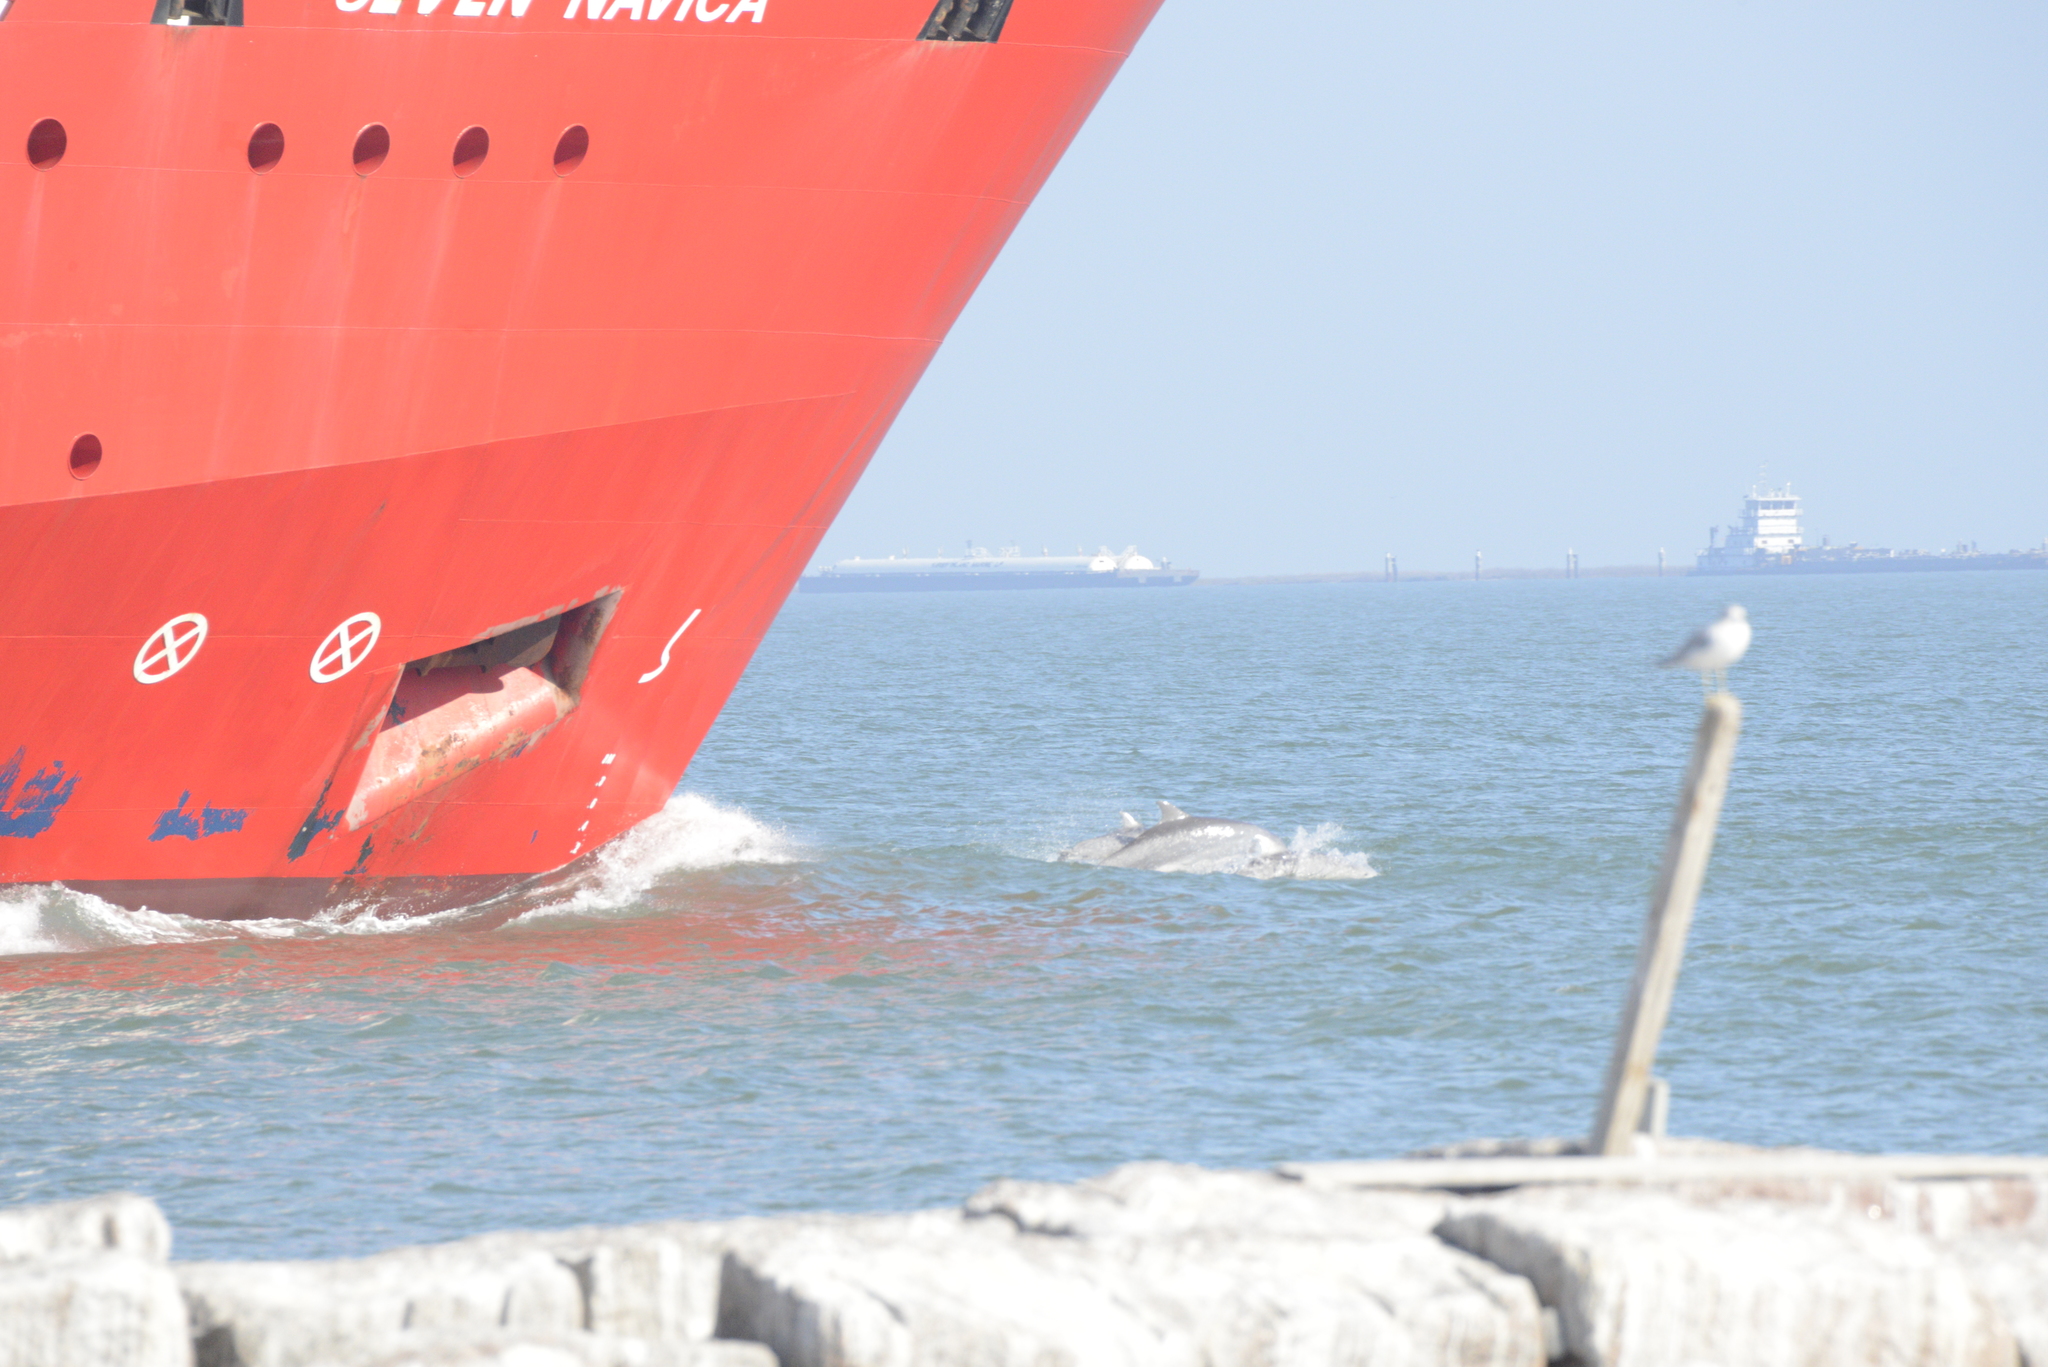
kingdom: Animalia
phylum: Chordata
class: Mammalia
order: Cetacea
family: Delphinidae
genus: Tursiops
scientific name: Tursiops truncatus
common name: Bottlenose dolphin
